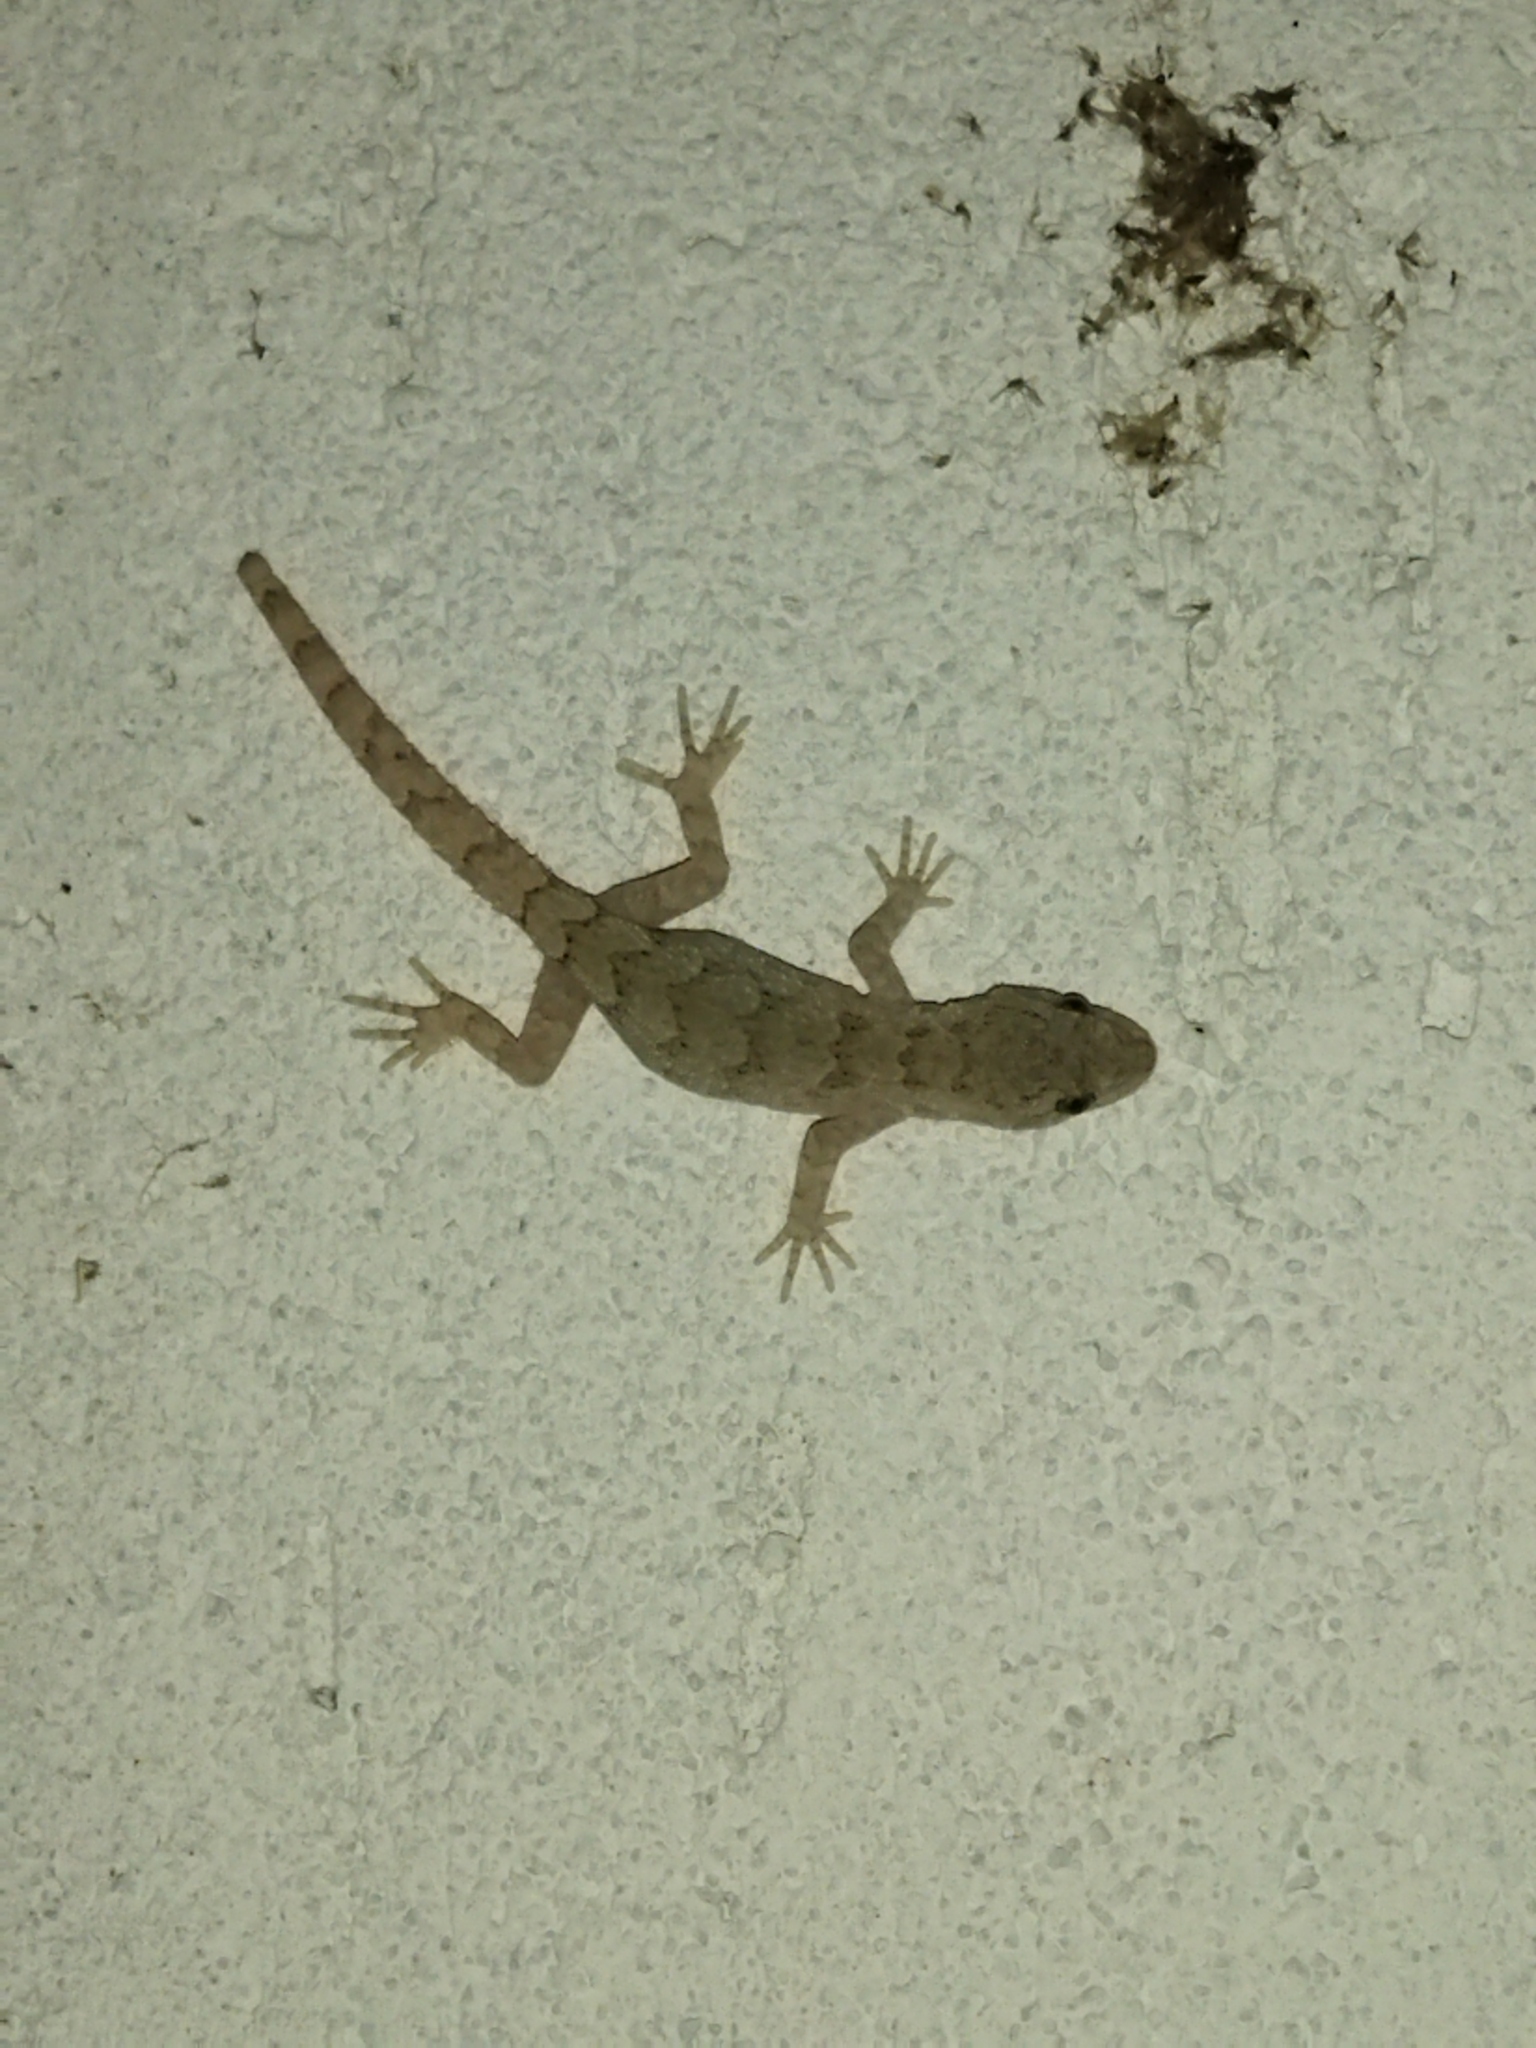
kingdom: Animalia
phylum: Chordata
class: Squamata
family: Gekkonidae
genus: Mediodactylus
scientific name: Mediodactylus kotschyi
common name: Kotschy's gecko
